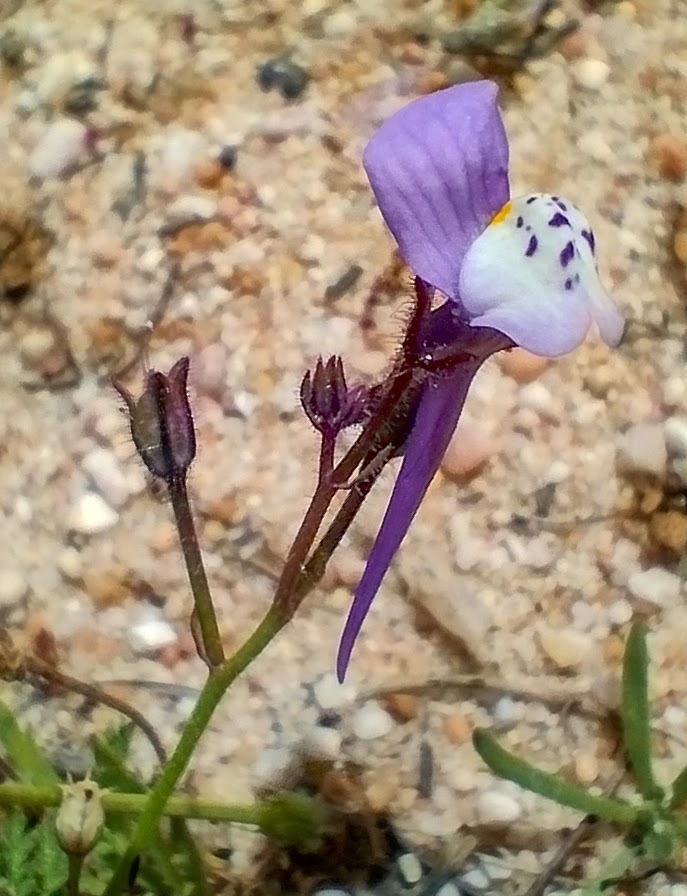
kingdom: Plantae
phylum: Tracheophyta
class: Magnoliopsida
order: Lamiales
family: Plantaginaceae
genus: Linaria
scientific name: Linaria algarviana
